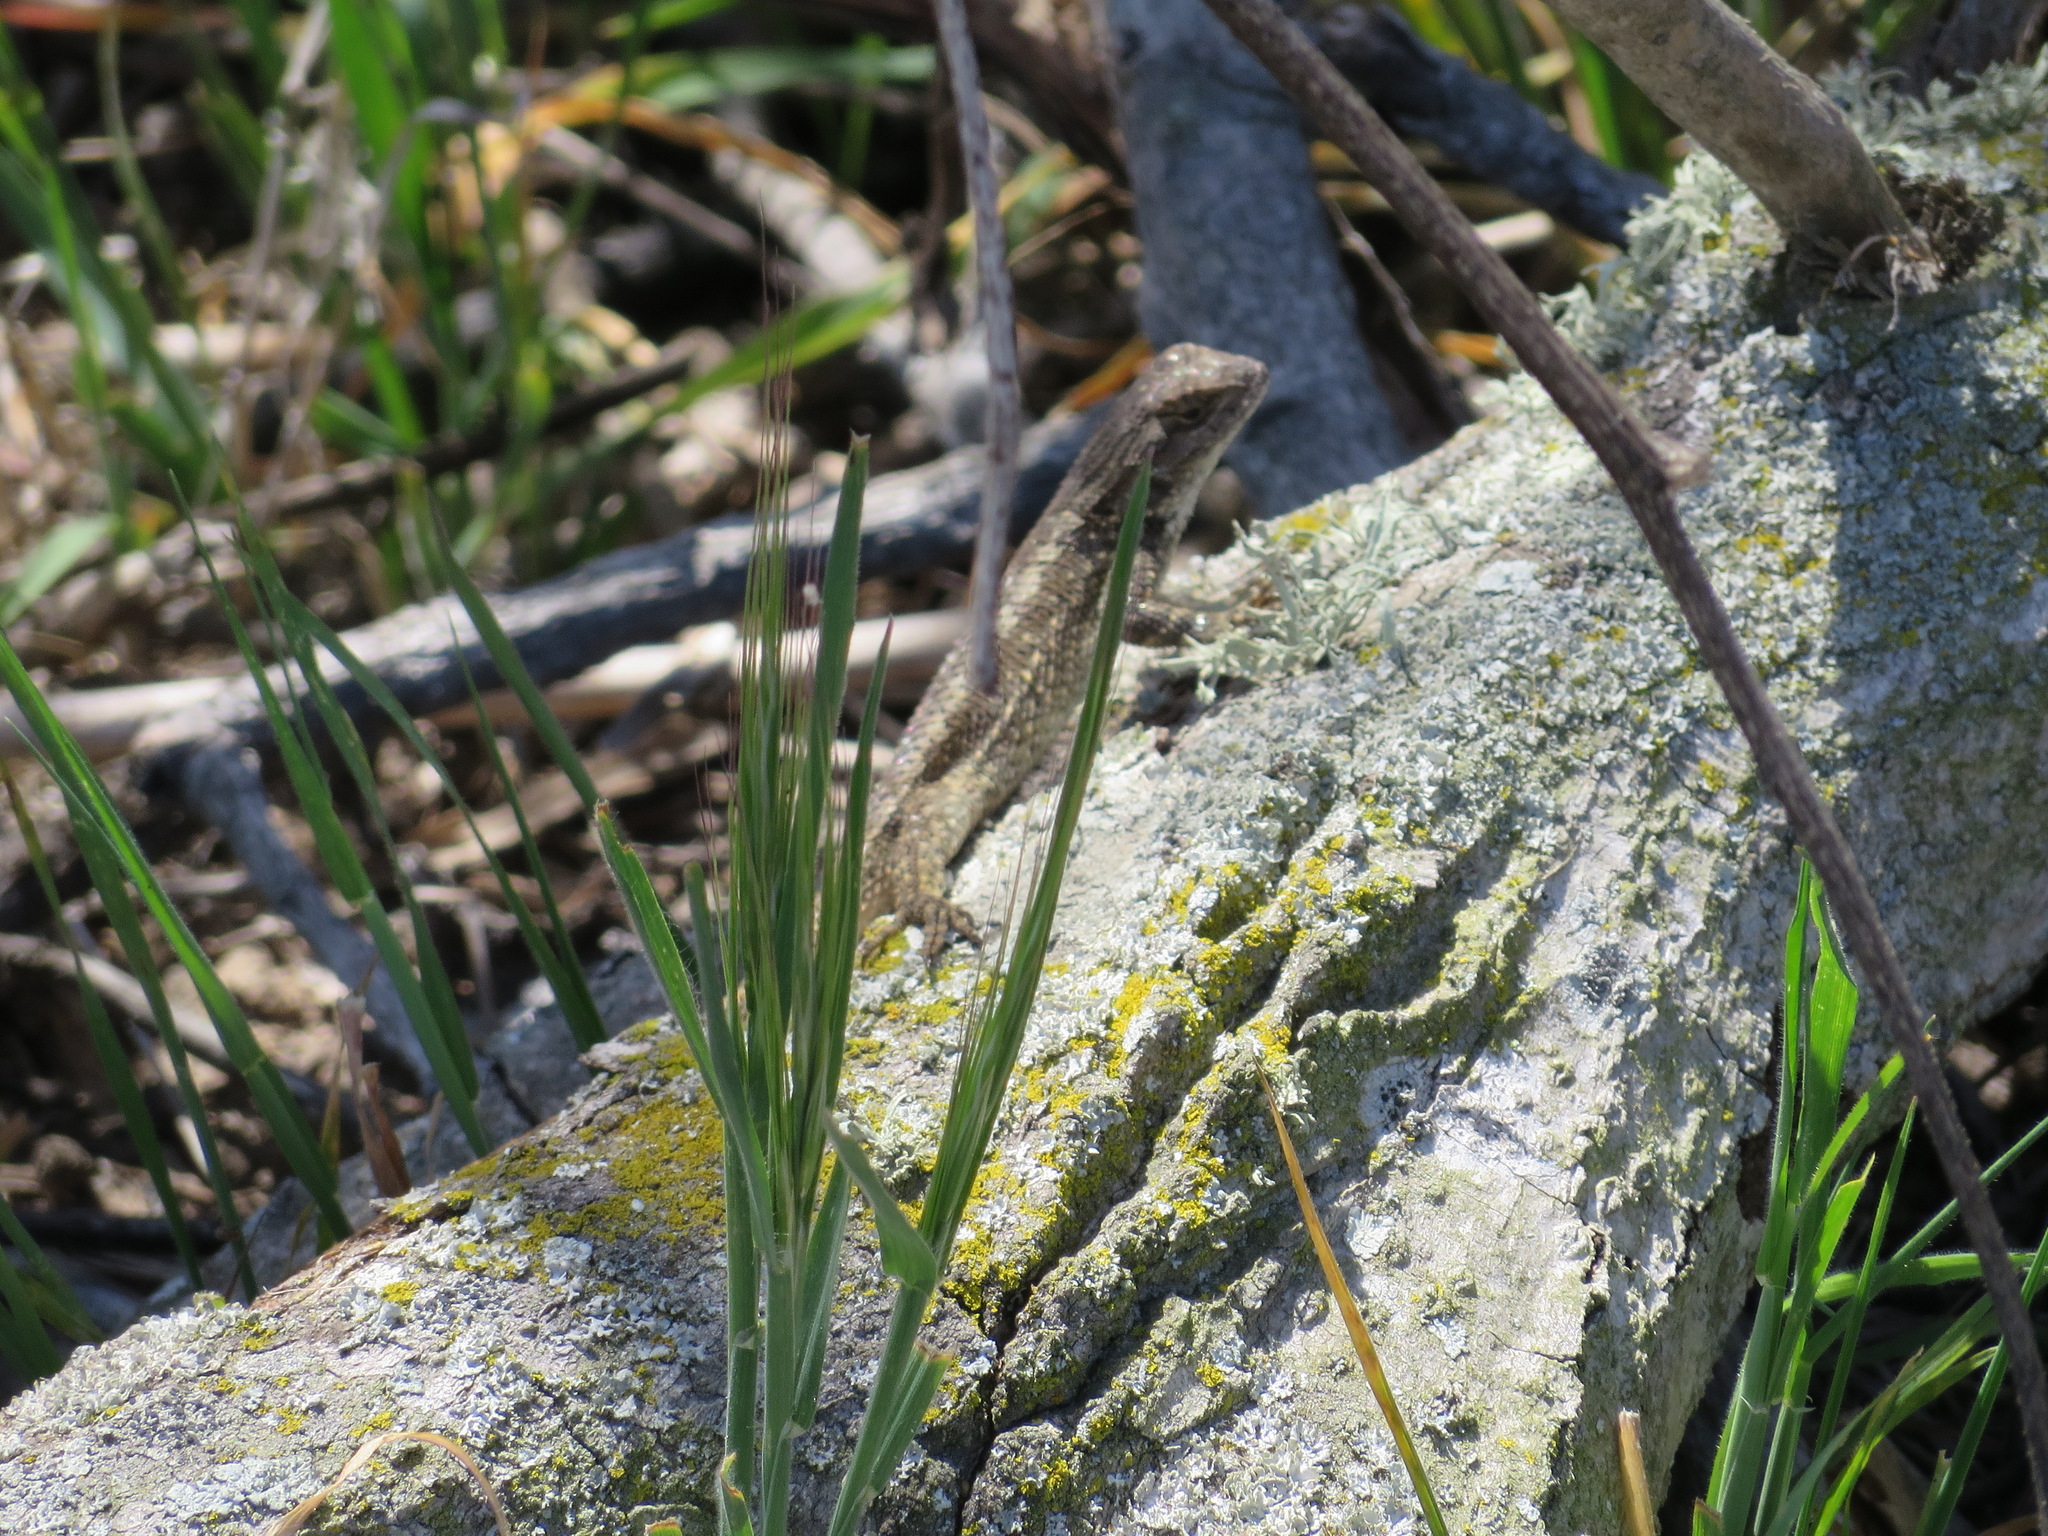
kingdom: Animalia
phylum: Chordata
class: Squamata
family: Phrynosomatidae
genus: Sceloporus
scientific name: Sceloporus occidentalis
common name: Western fence lizard
